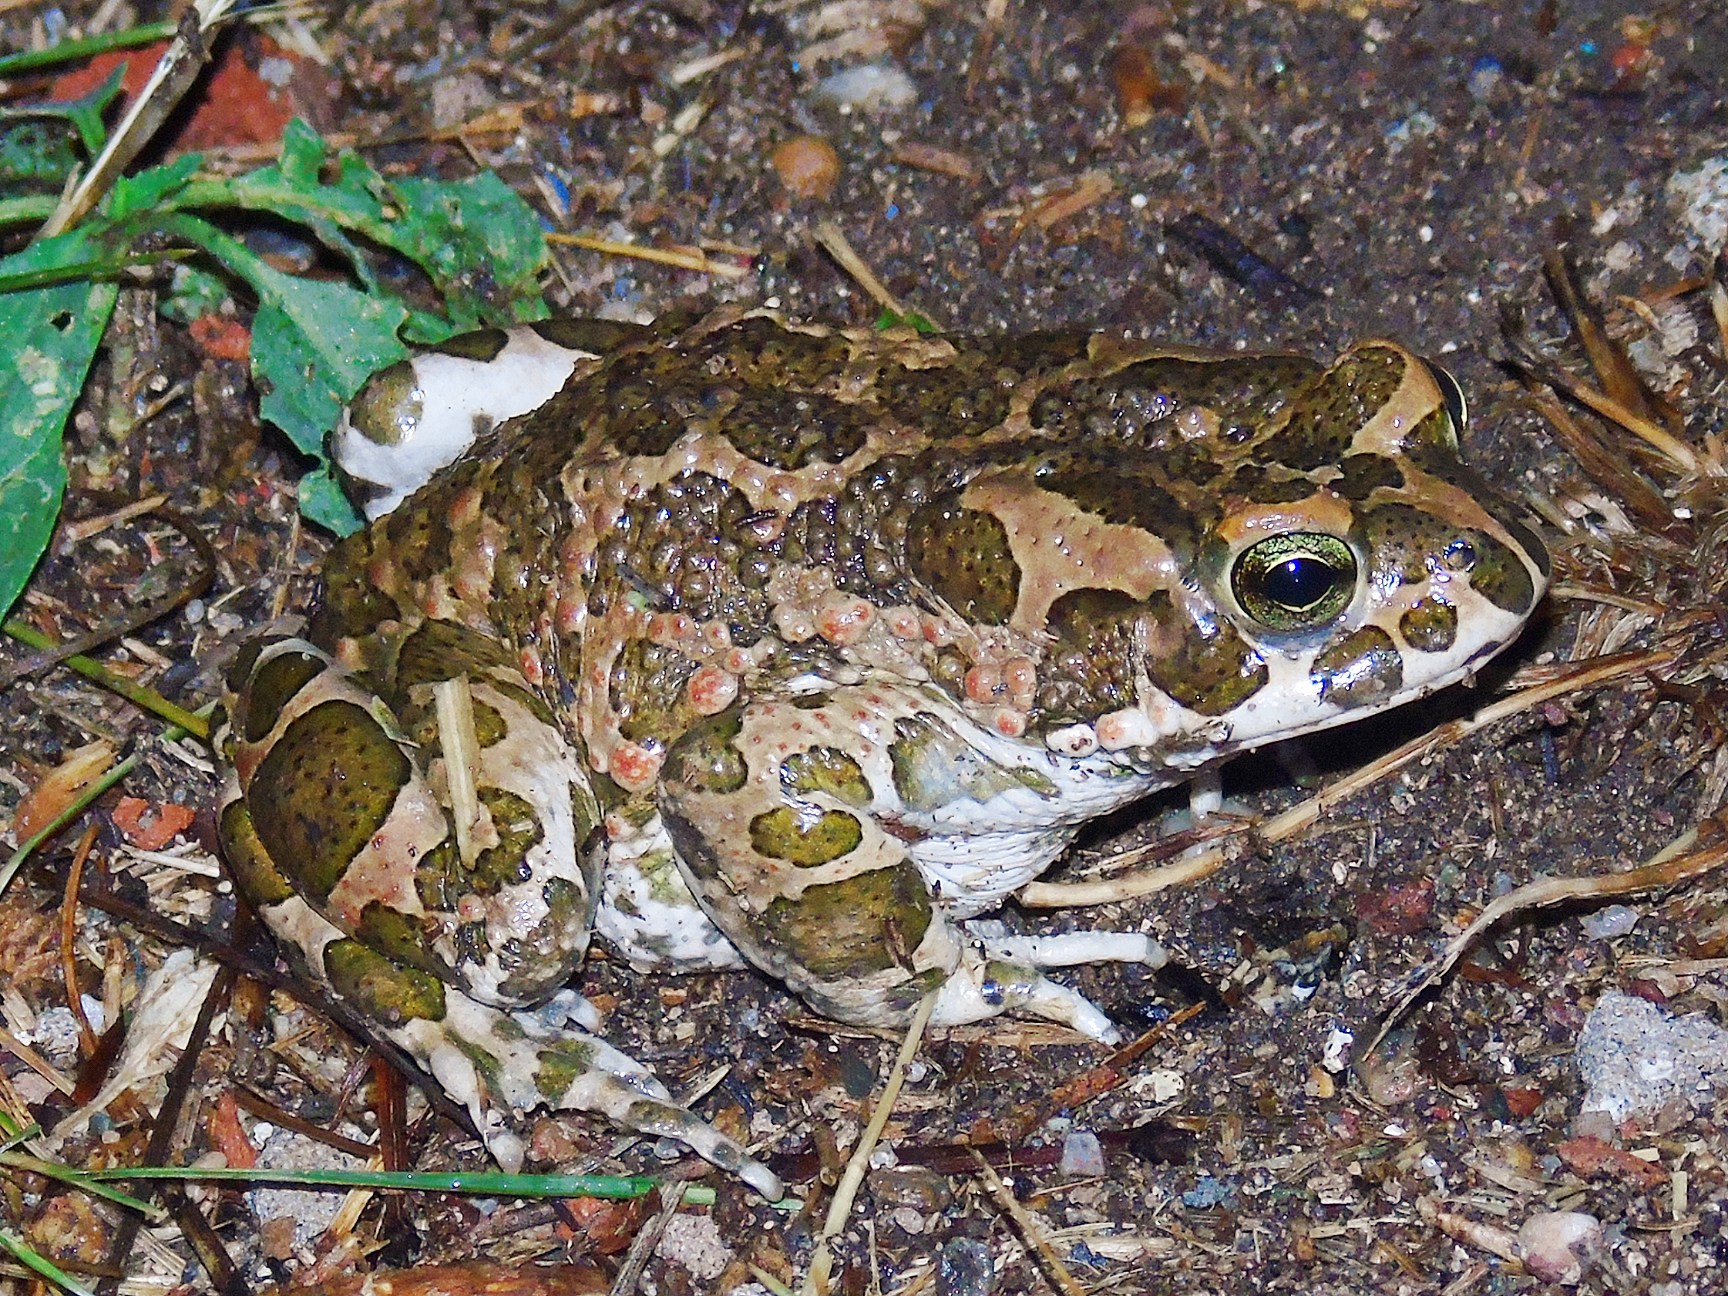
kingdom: Animalia
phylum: Chordata
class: Amphibia
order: Anura
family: Bufonidae
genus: Bufotes
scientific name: Bufotes viridis
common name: European green toad
